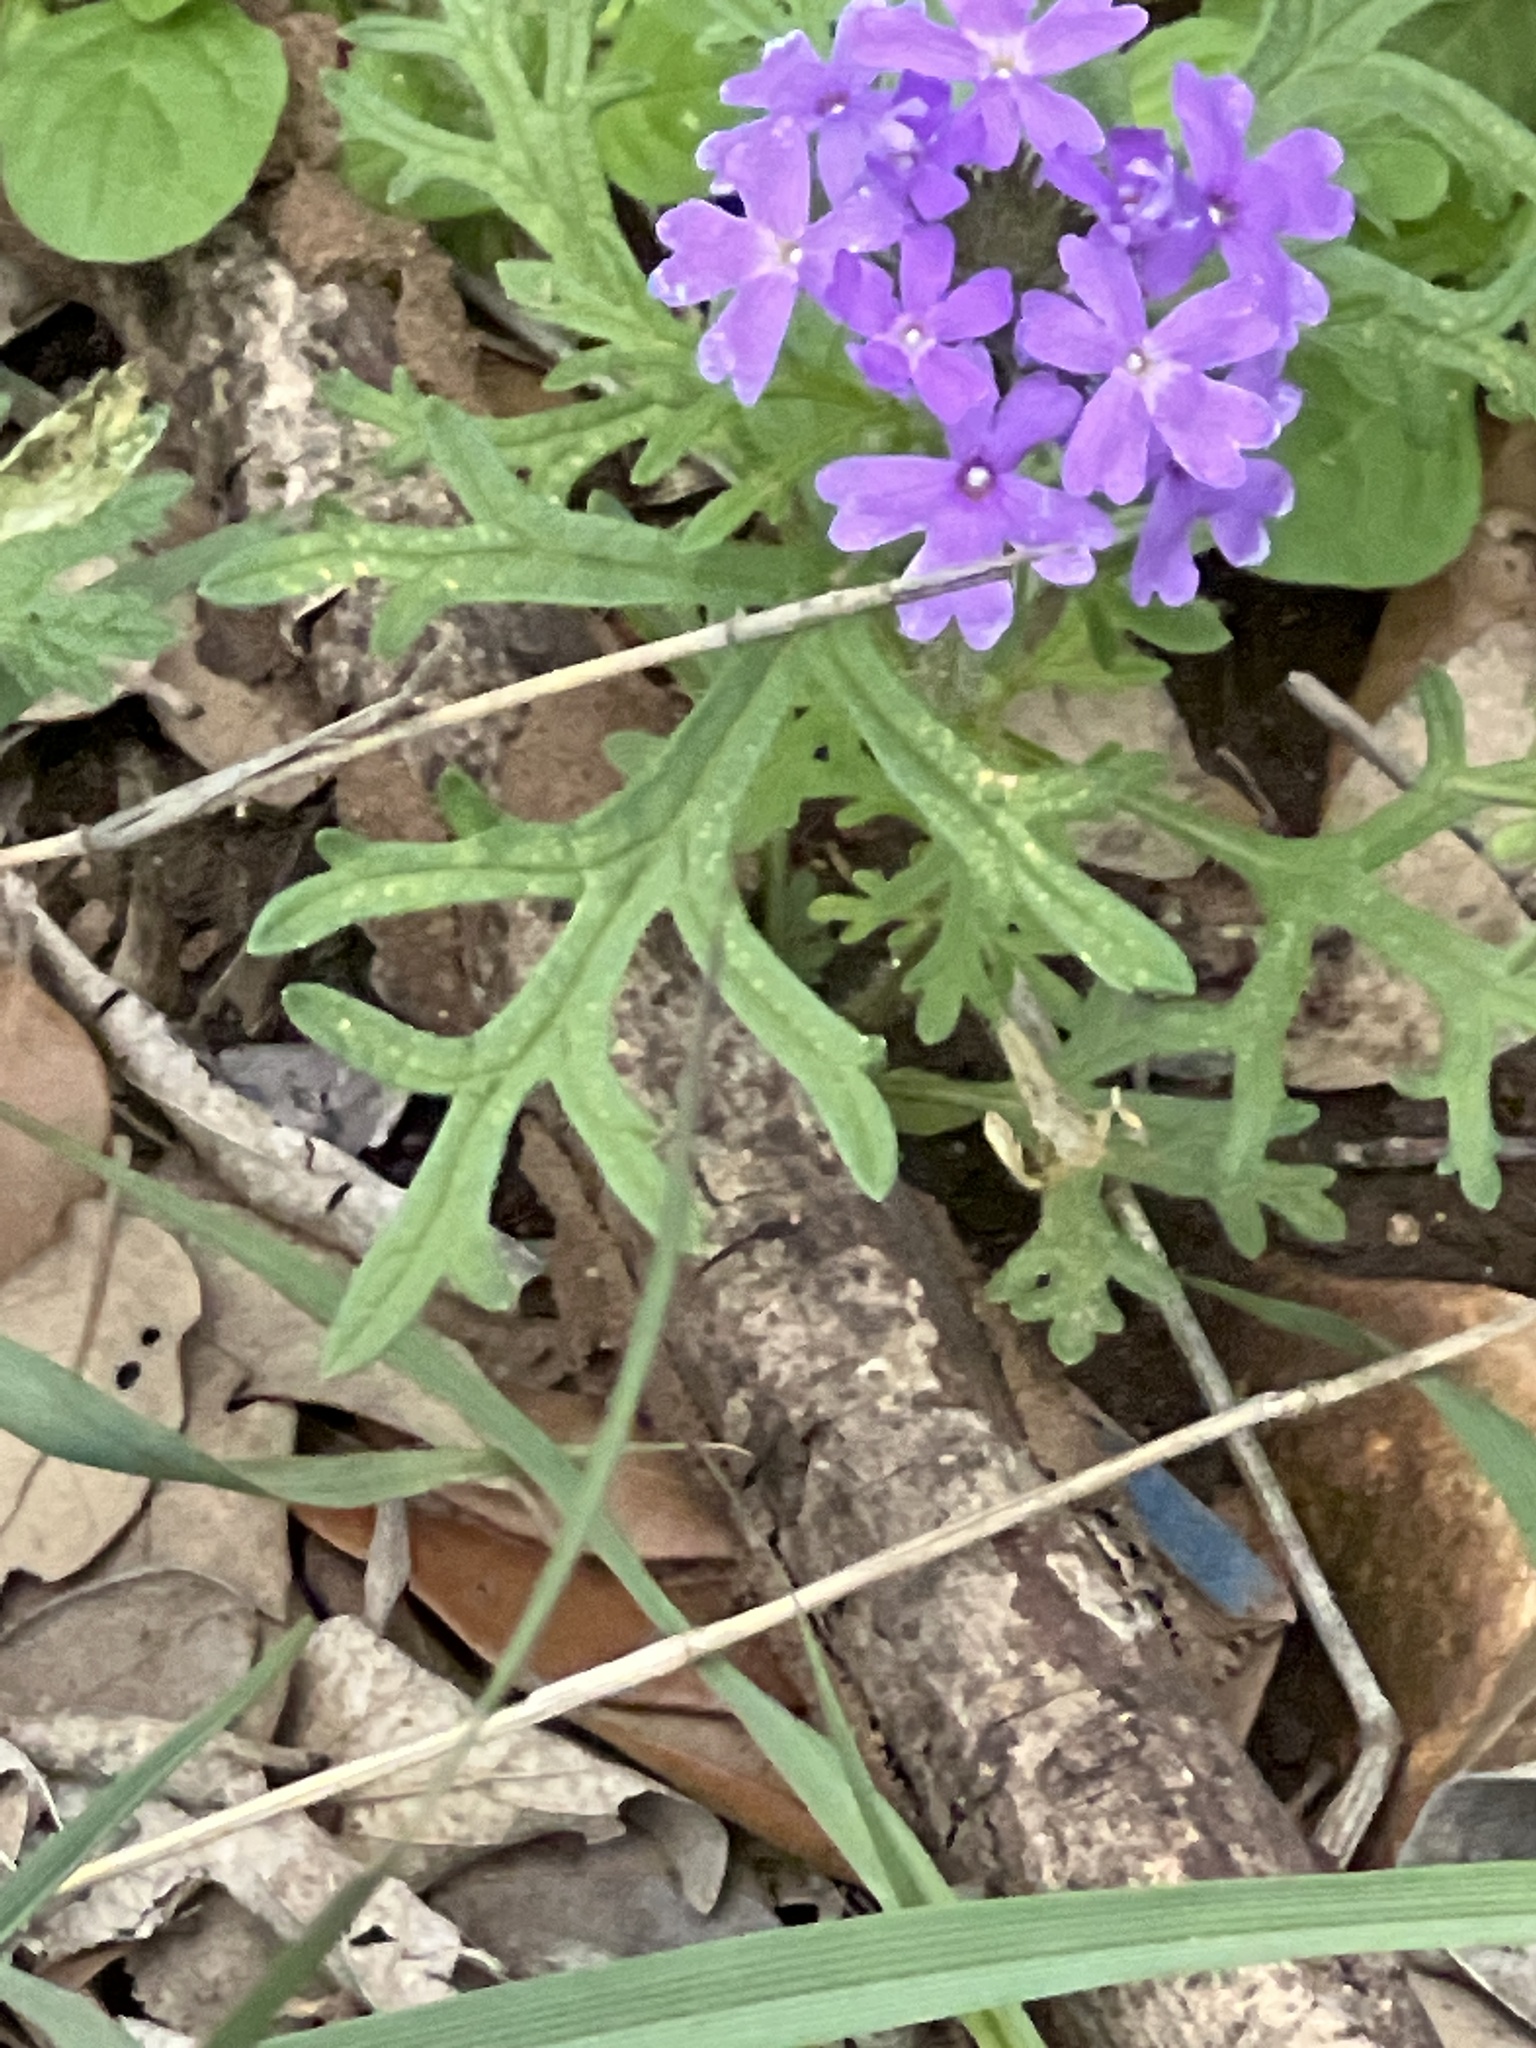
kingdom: Plantae
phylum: Tracheophyta
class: Magnoliopsida
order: Lamiales
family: Verbenaceae
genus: Verbena
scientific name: Verbena bipinnatifida
